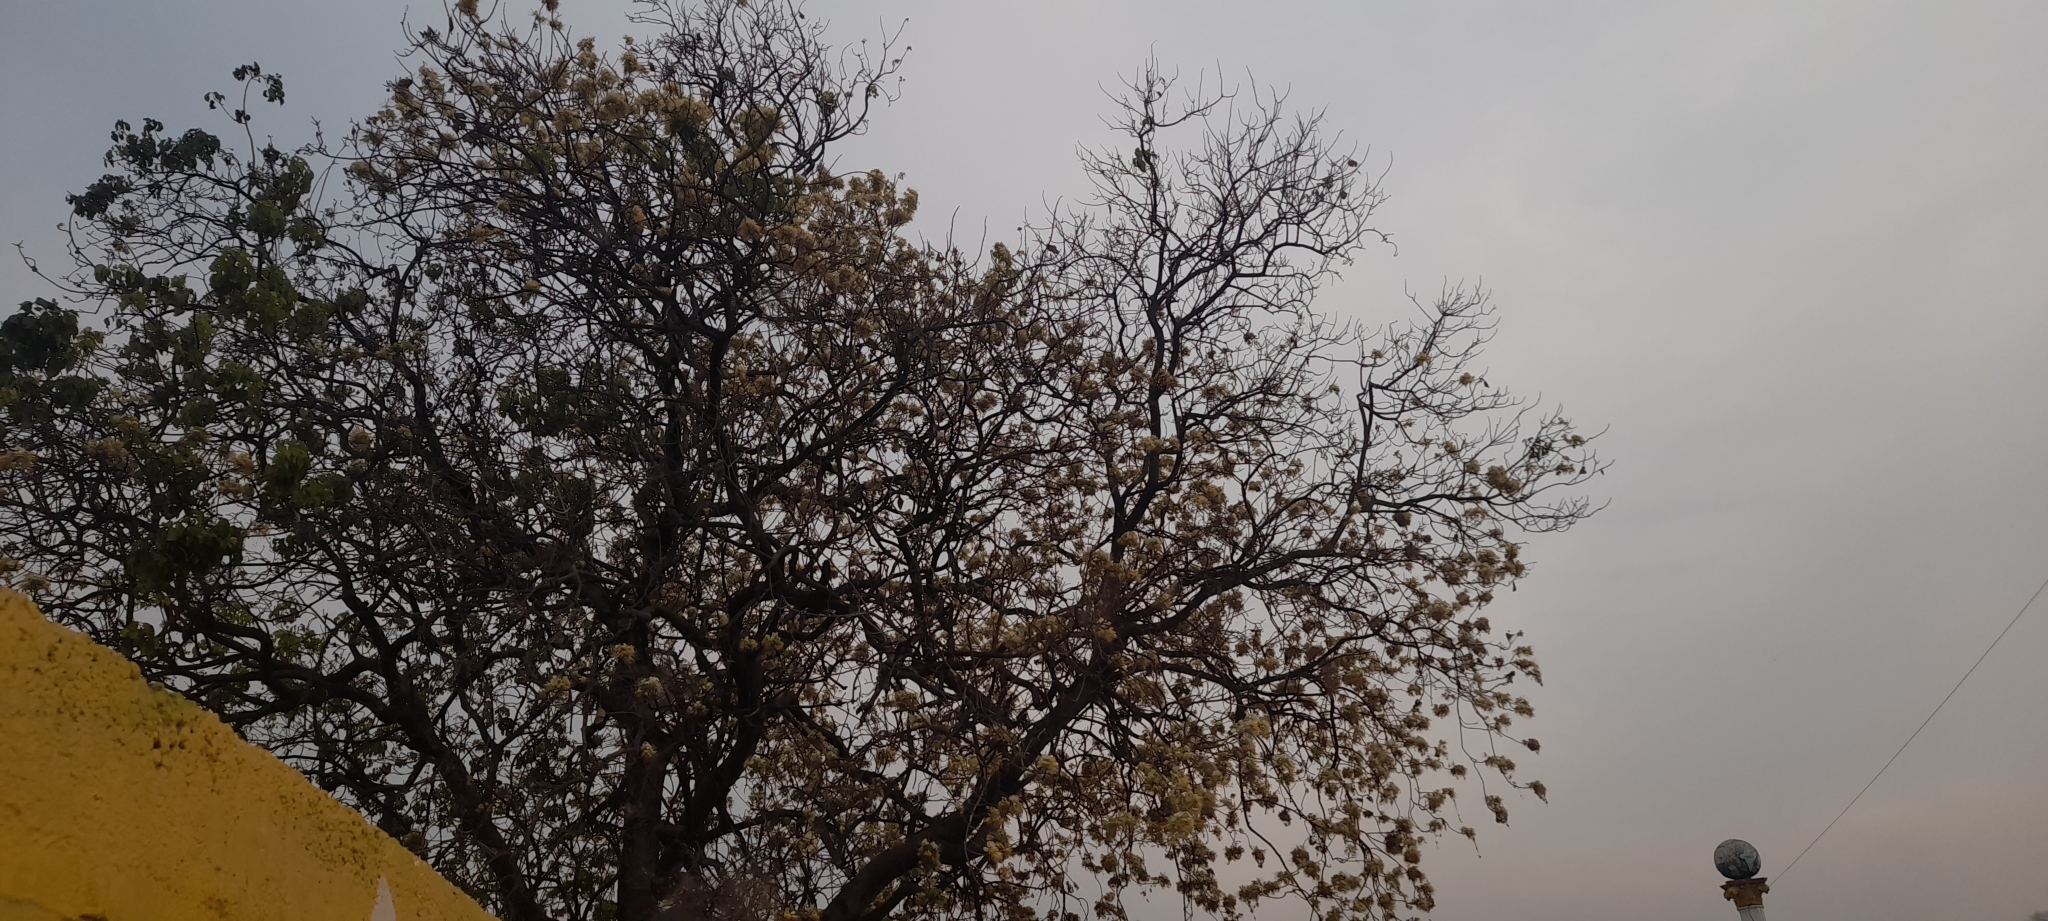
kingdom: Plantae
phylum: Tracheophyta
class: Magnoliopsida
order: Brassicales
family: Capparaceae
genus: Crateva
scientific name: Crateva religiosa
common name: March dalur
